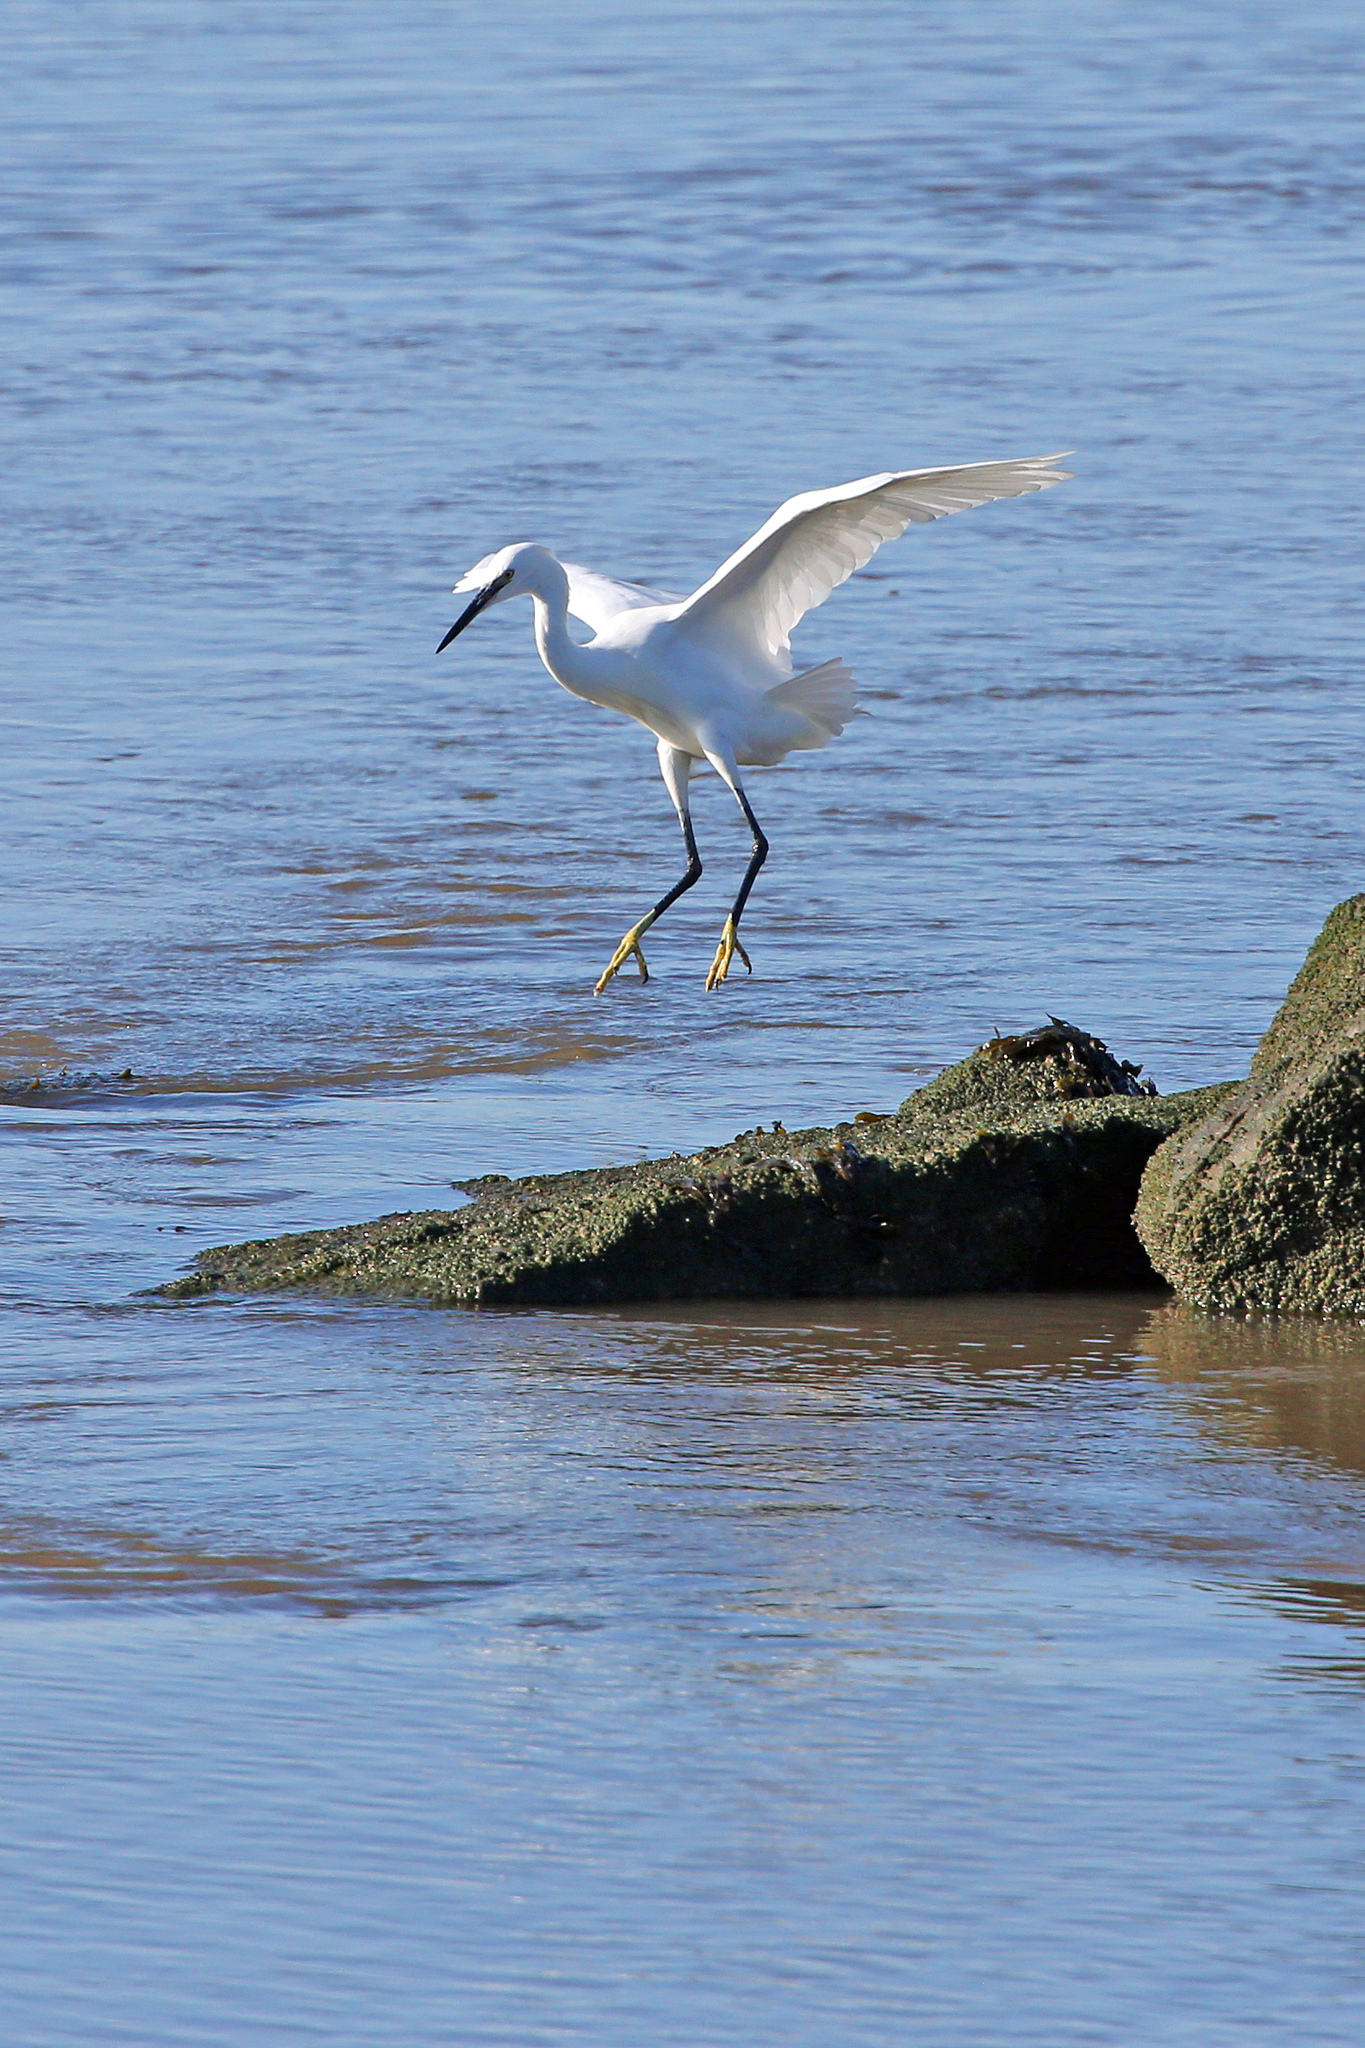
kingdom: Animalia
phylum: Chordata
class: Aves
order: Pelecaniformes
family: Ardeidae
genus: Egretta
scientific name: Egretta garzetta
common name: Little egret
